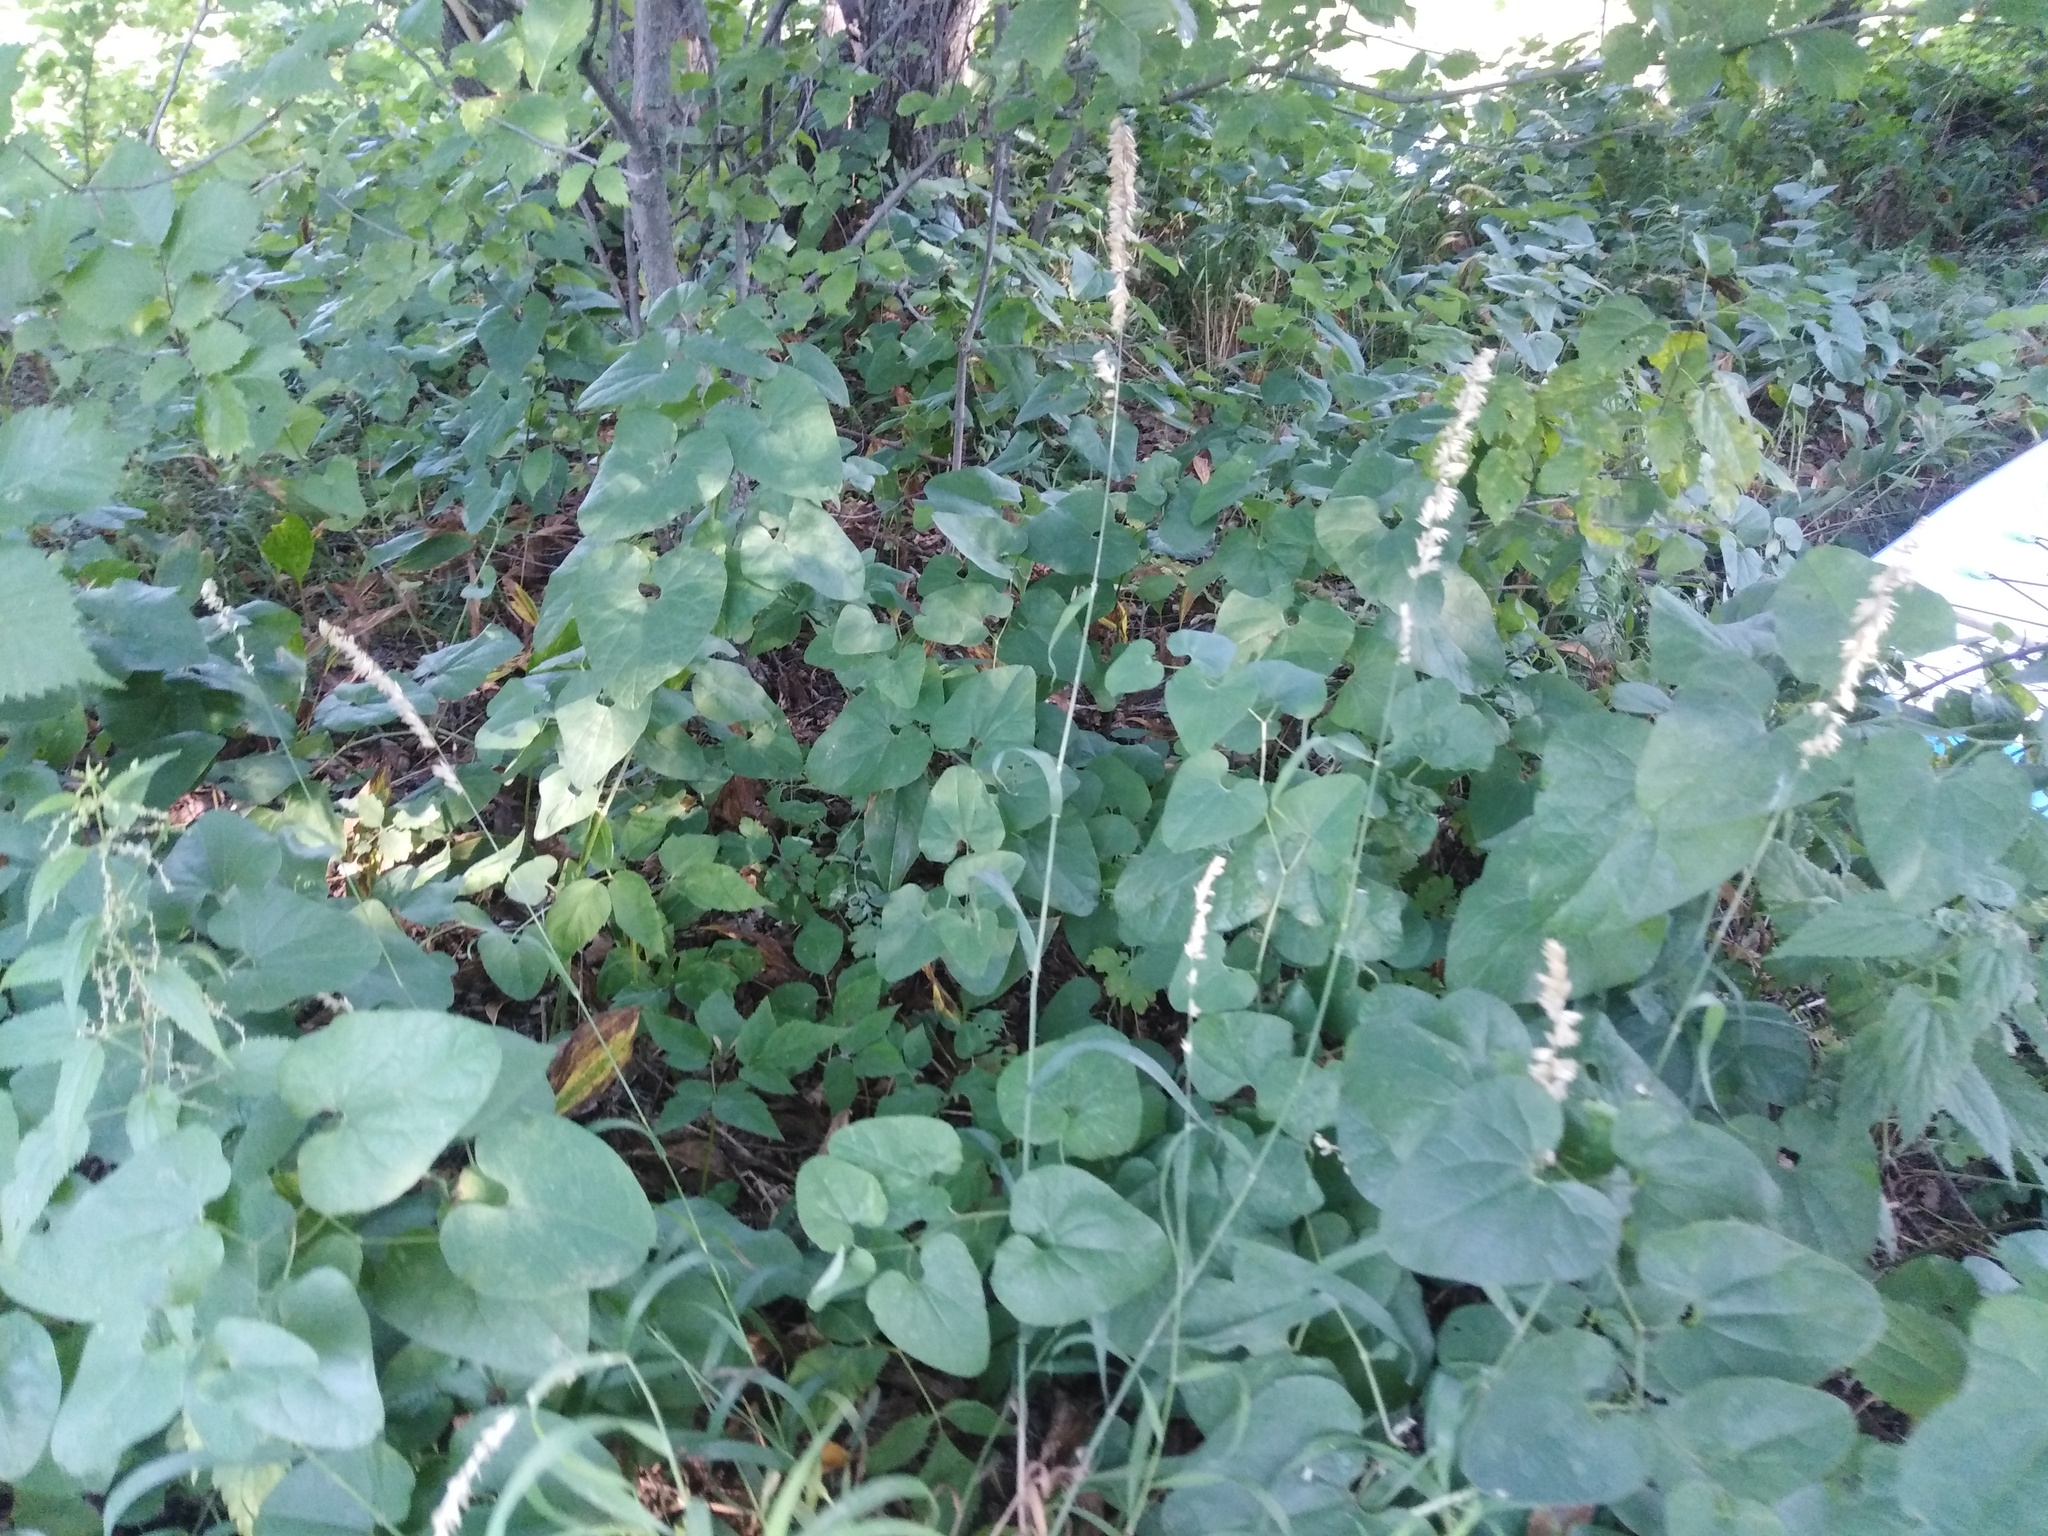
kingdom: Plantae
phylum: Tracheophyta
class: Liliopsida
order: Poales
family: Poaceae
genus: Melica
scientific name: Melica altissima
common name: Siberian melicgrass
